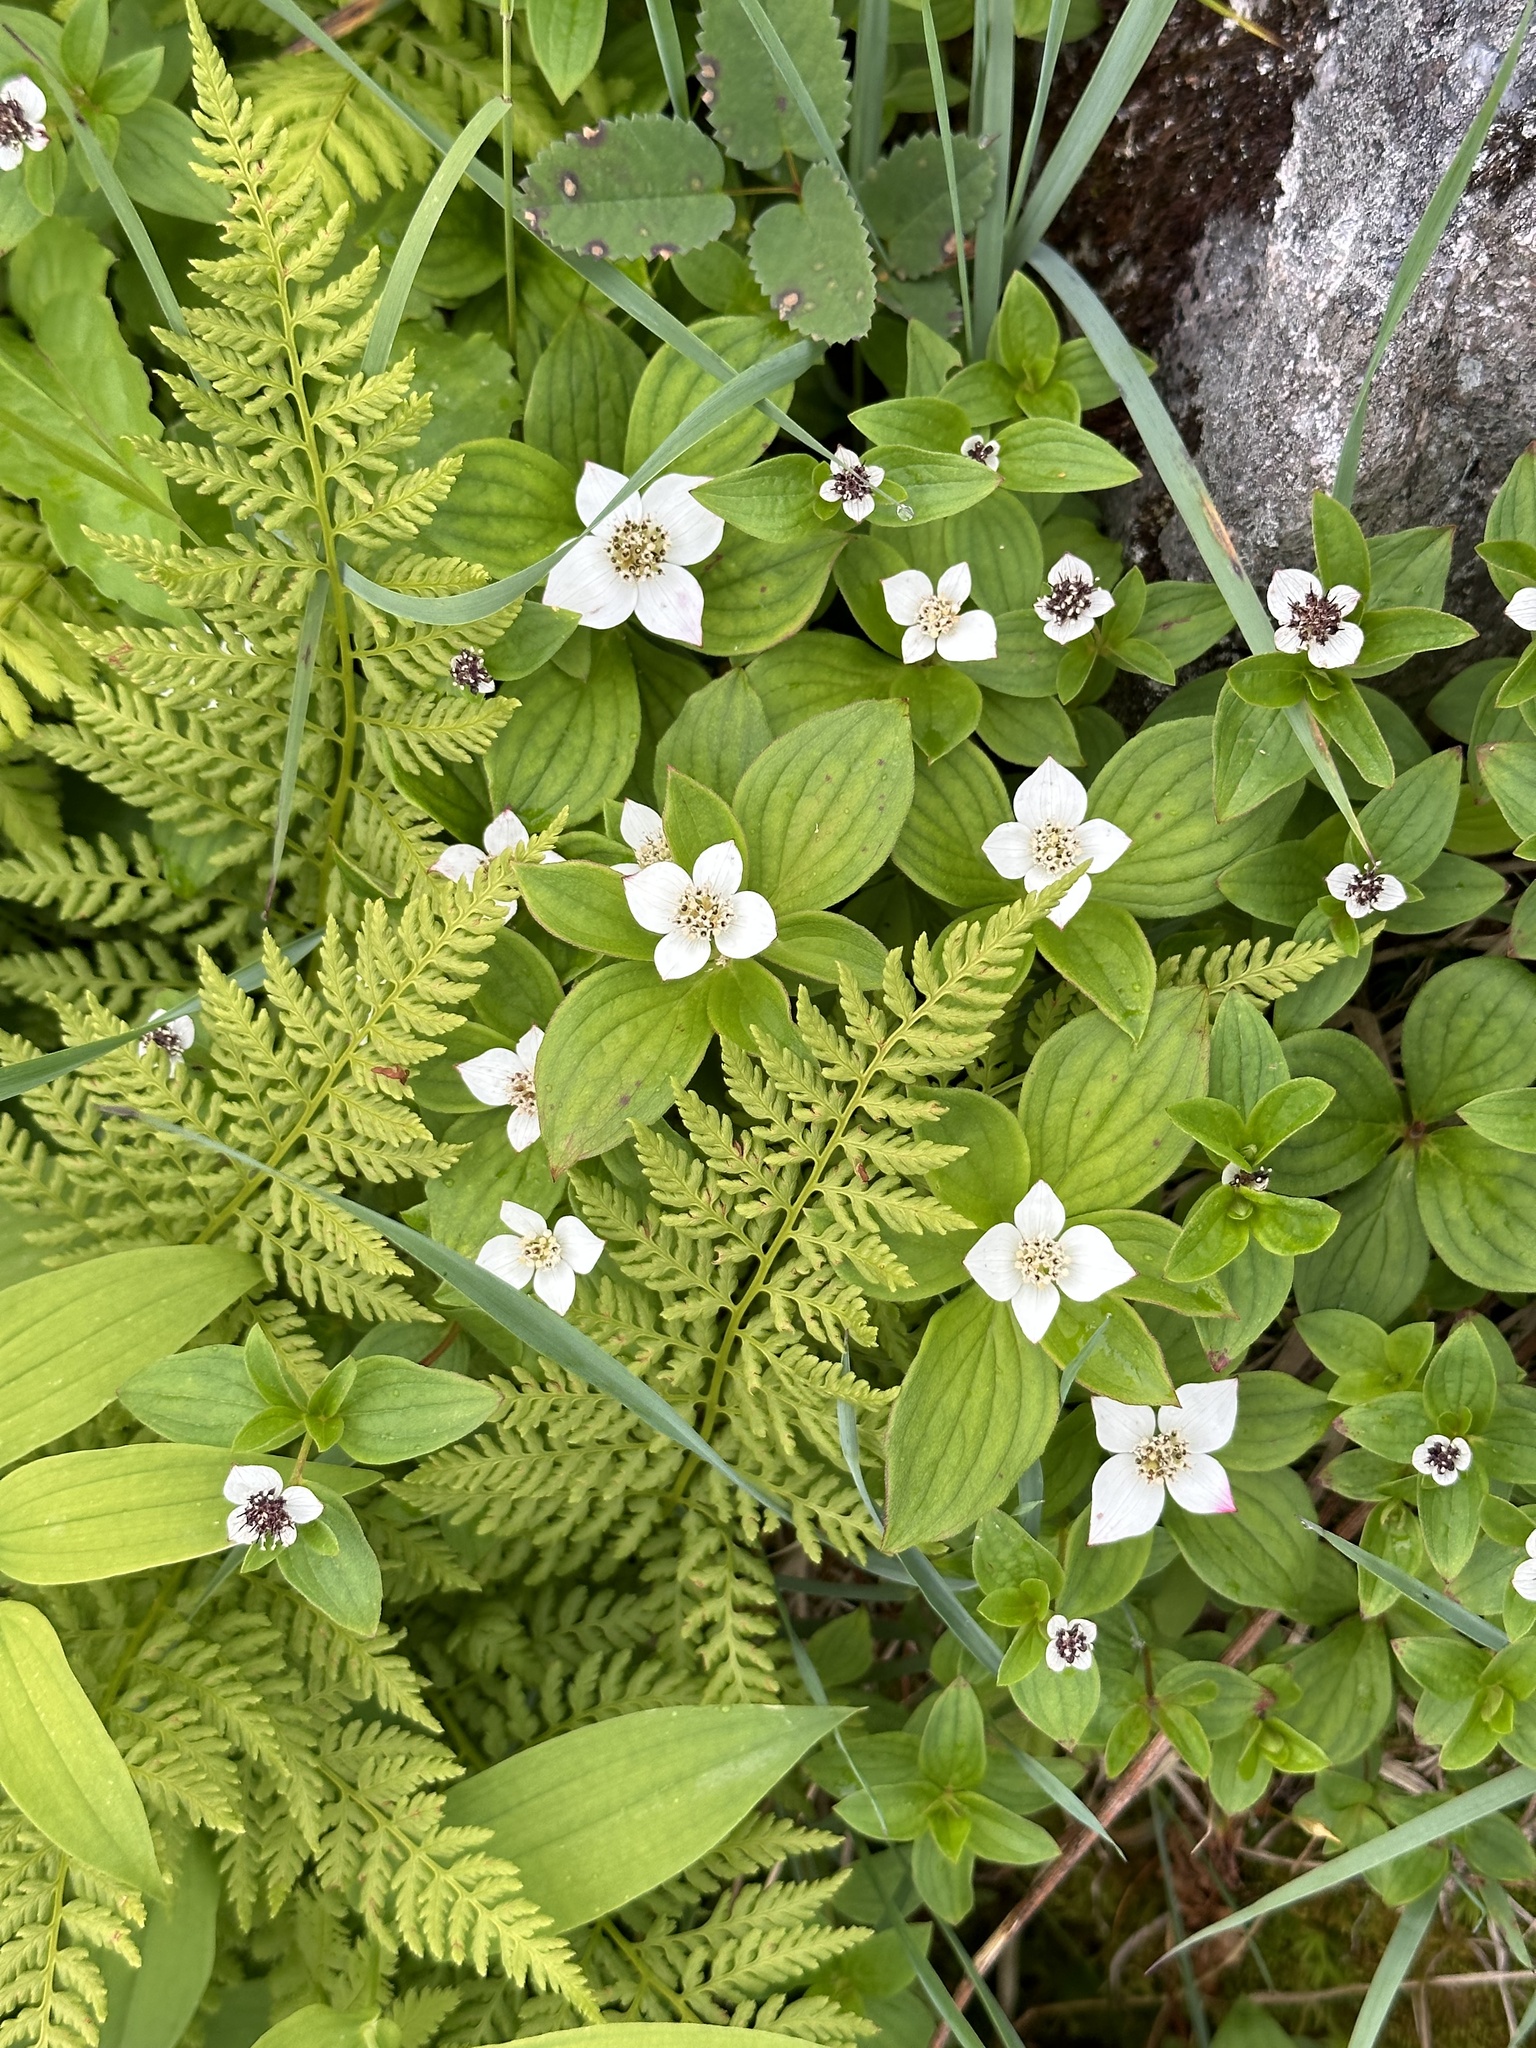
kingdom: Plantae
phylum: Tracheophyta
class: Magnoliopsida
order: Cornales
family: Cornaceae
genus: Cornus
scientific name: Cornus canadensis
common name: Creeping dogwood
